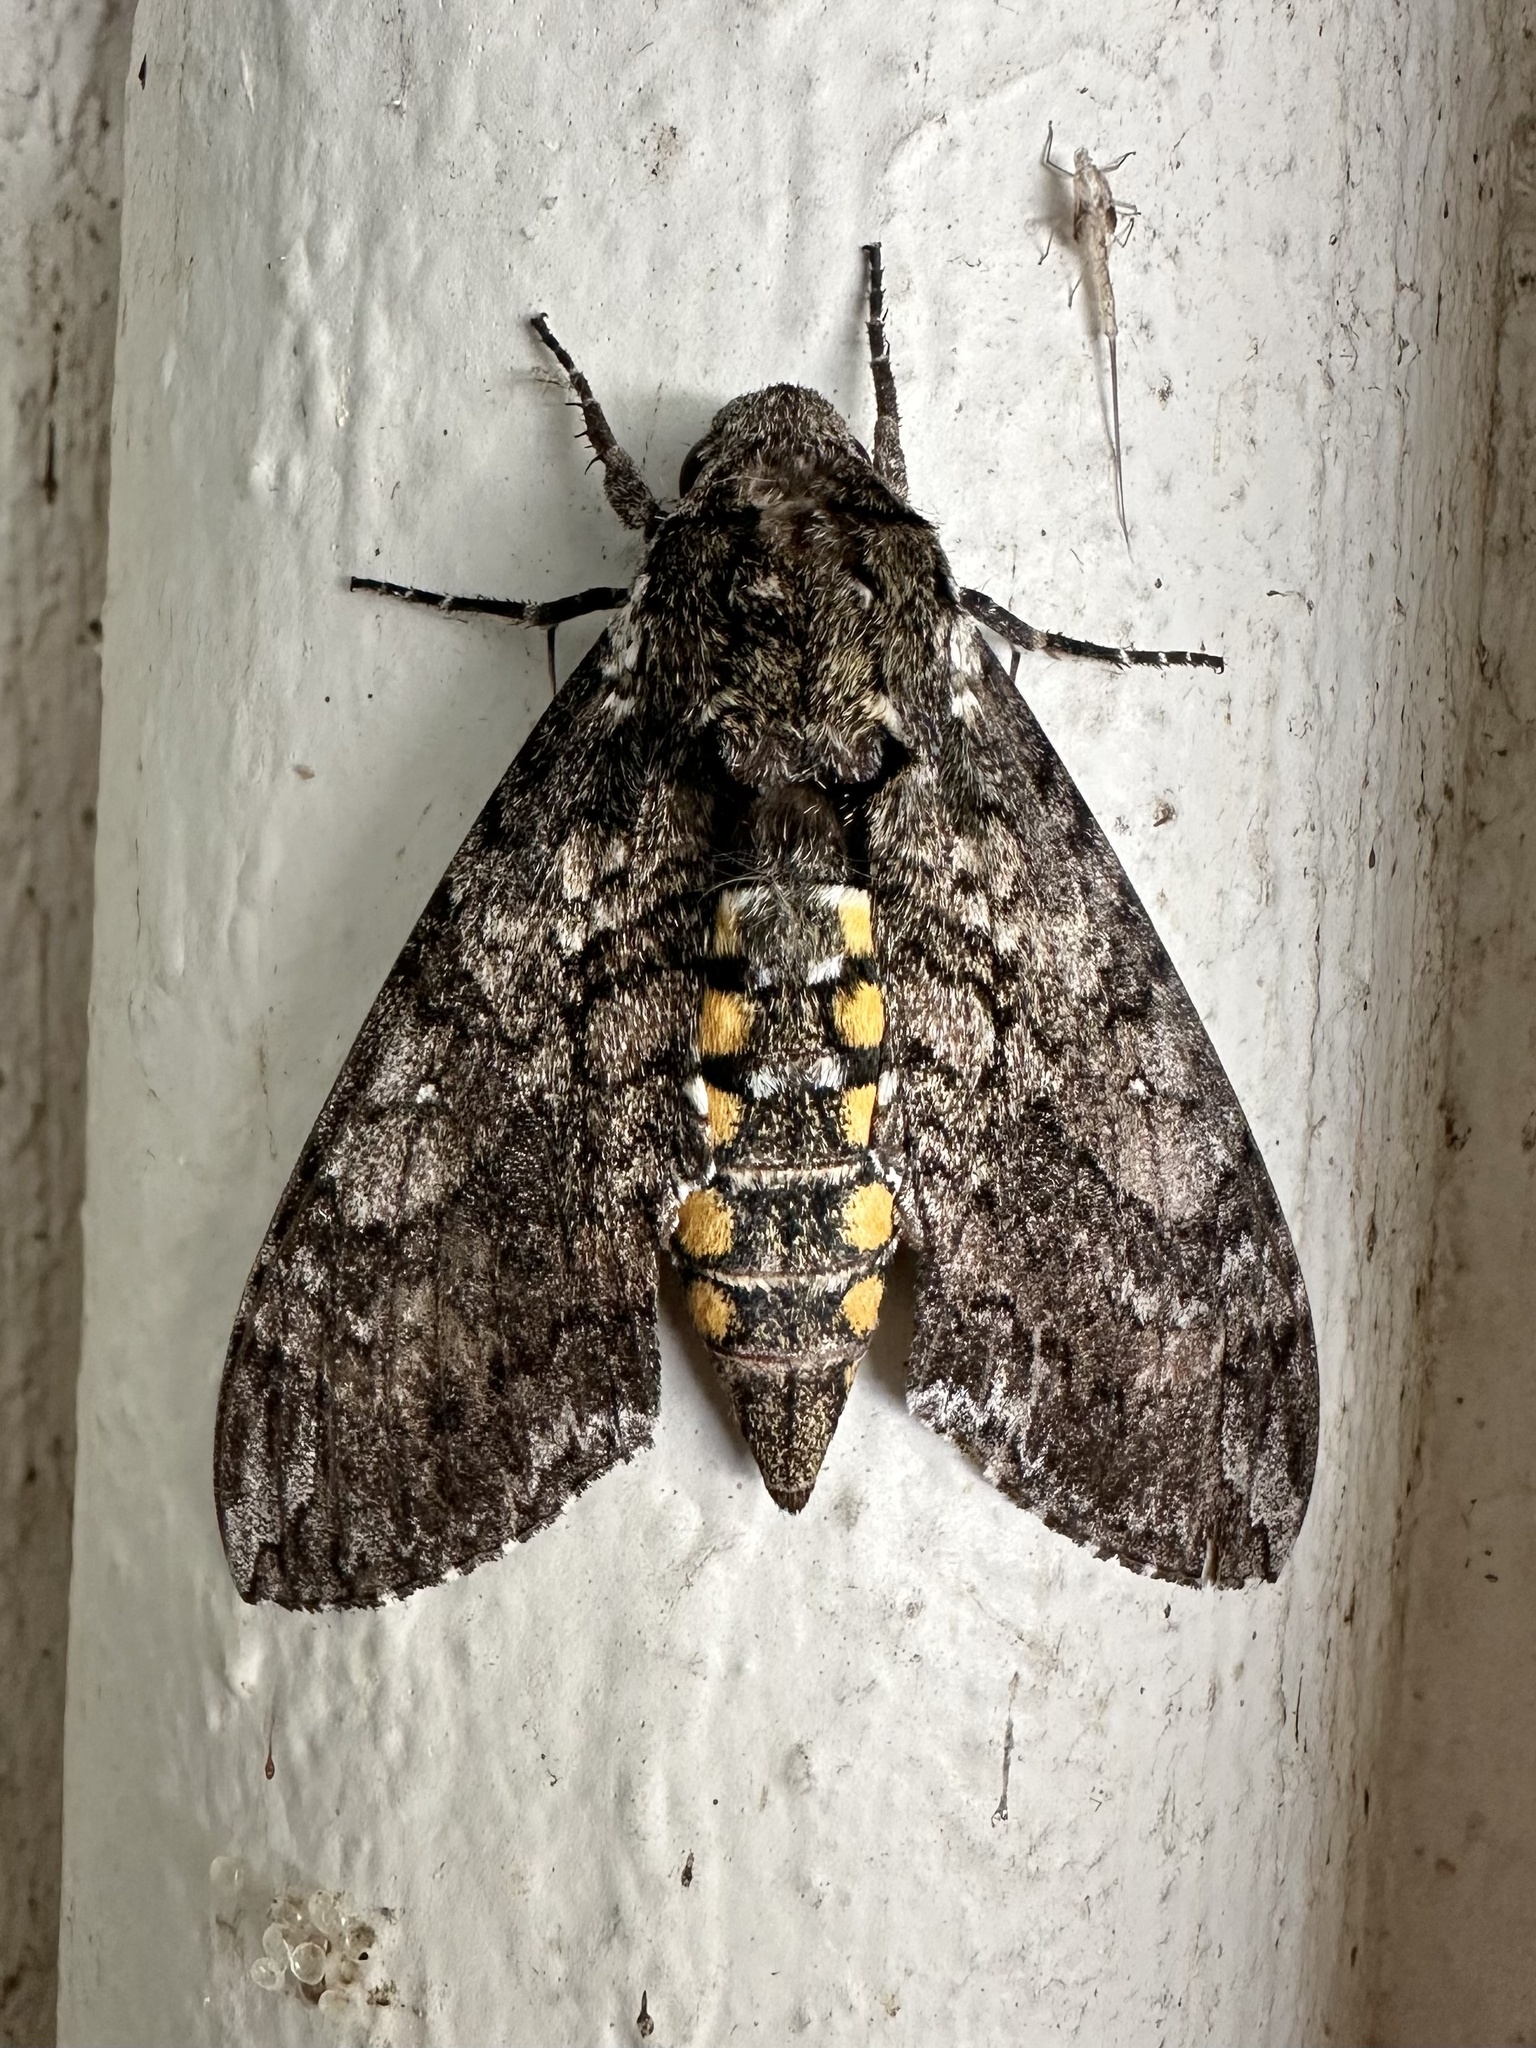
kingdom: Animalia
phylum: Arthropoda
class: Insecta
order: Lepidoptera
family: Sphingidae
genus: Manduca
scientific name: Manduca sexta
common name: Carolina sphinx
